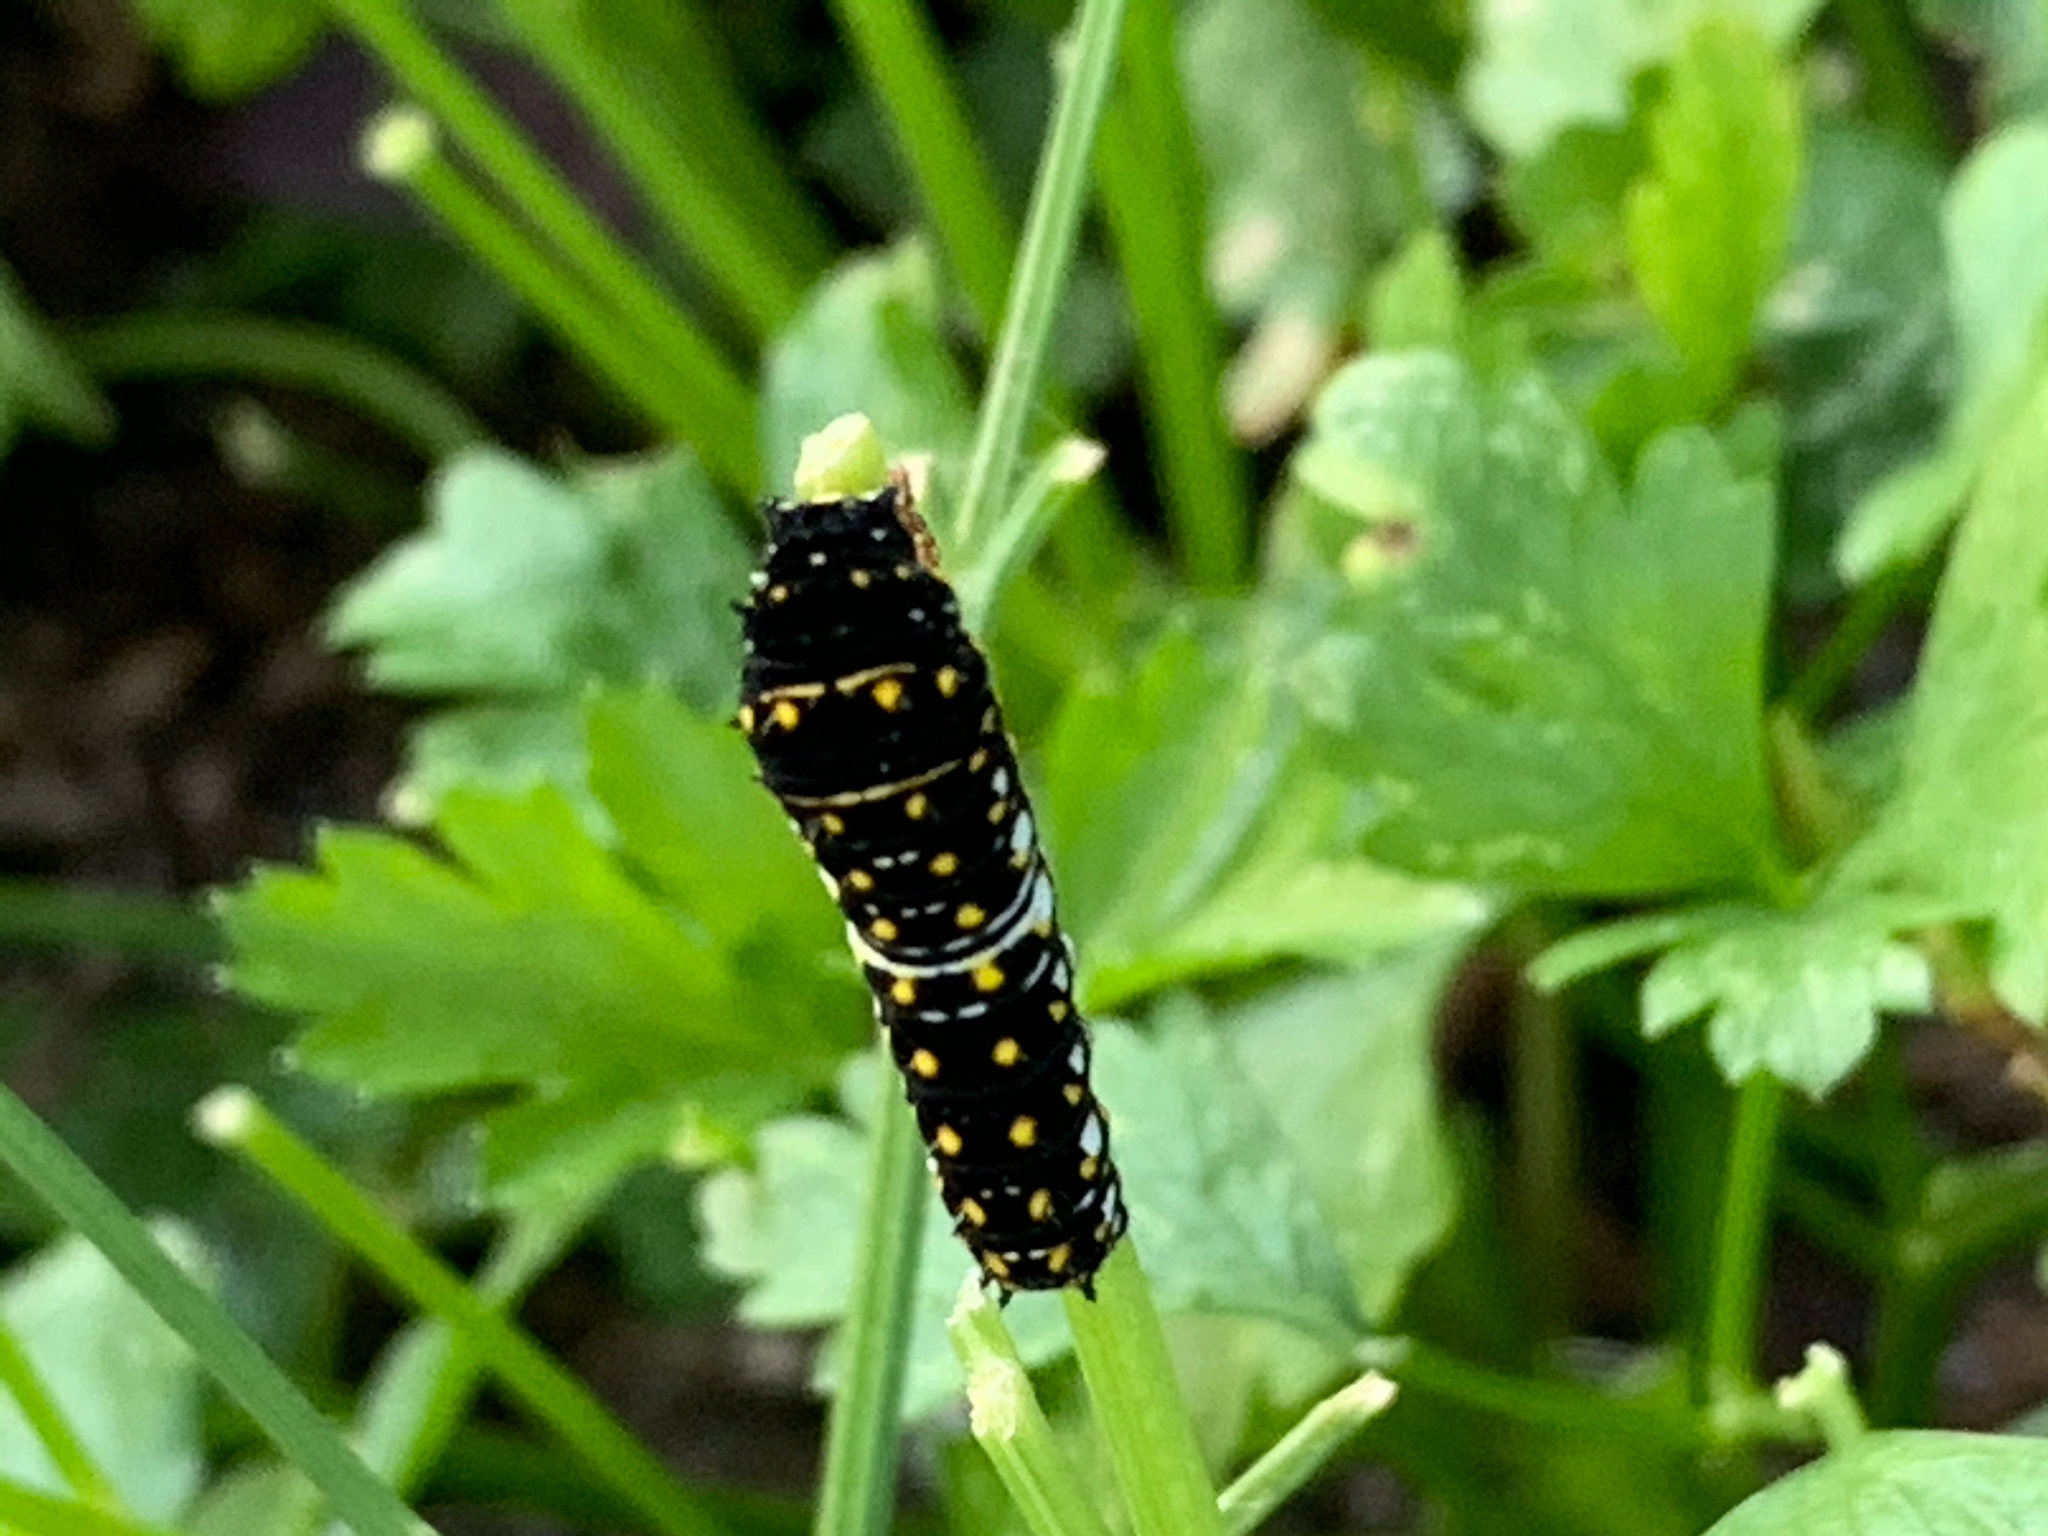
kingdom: Animalia
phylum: Arthropoda
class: Insecta
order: Lepidoptera
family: Papilionidae
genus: Papilio
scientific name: Papilio polyxenes
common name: Black swallowtail
